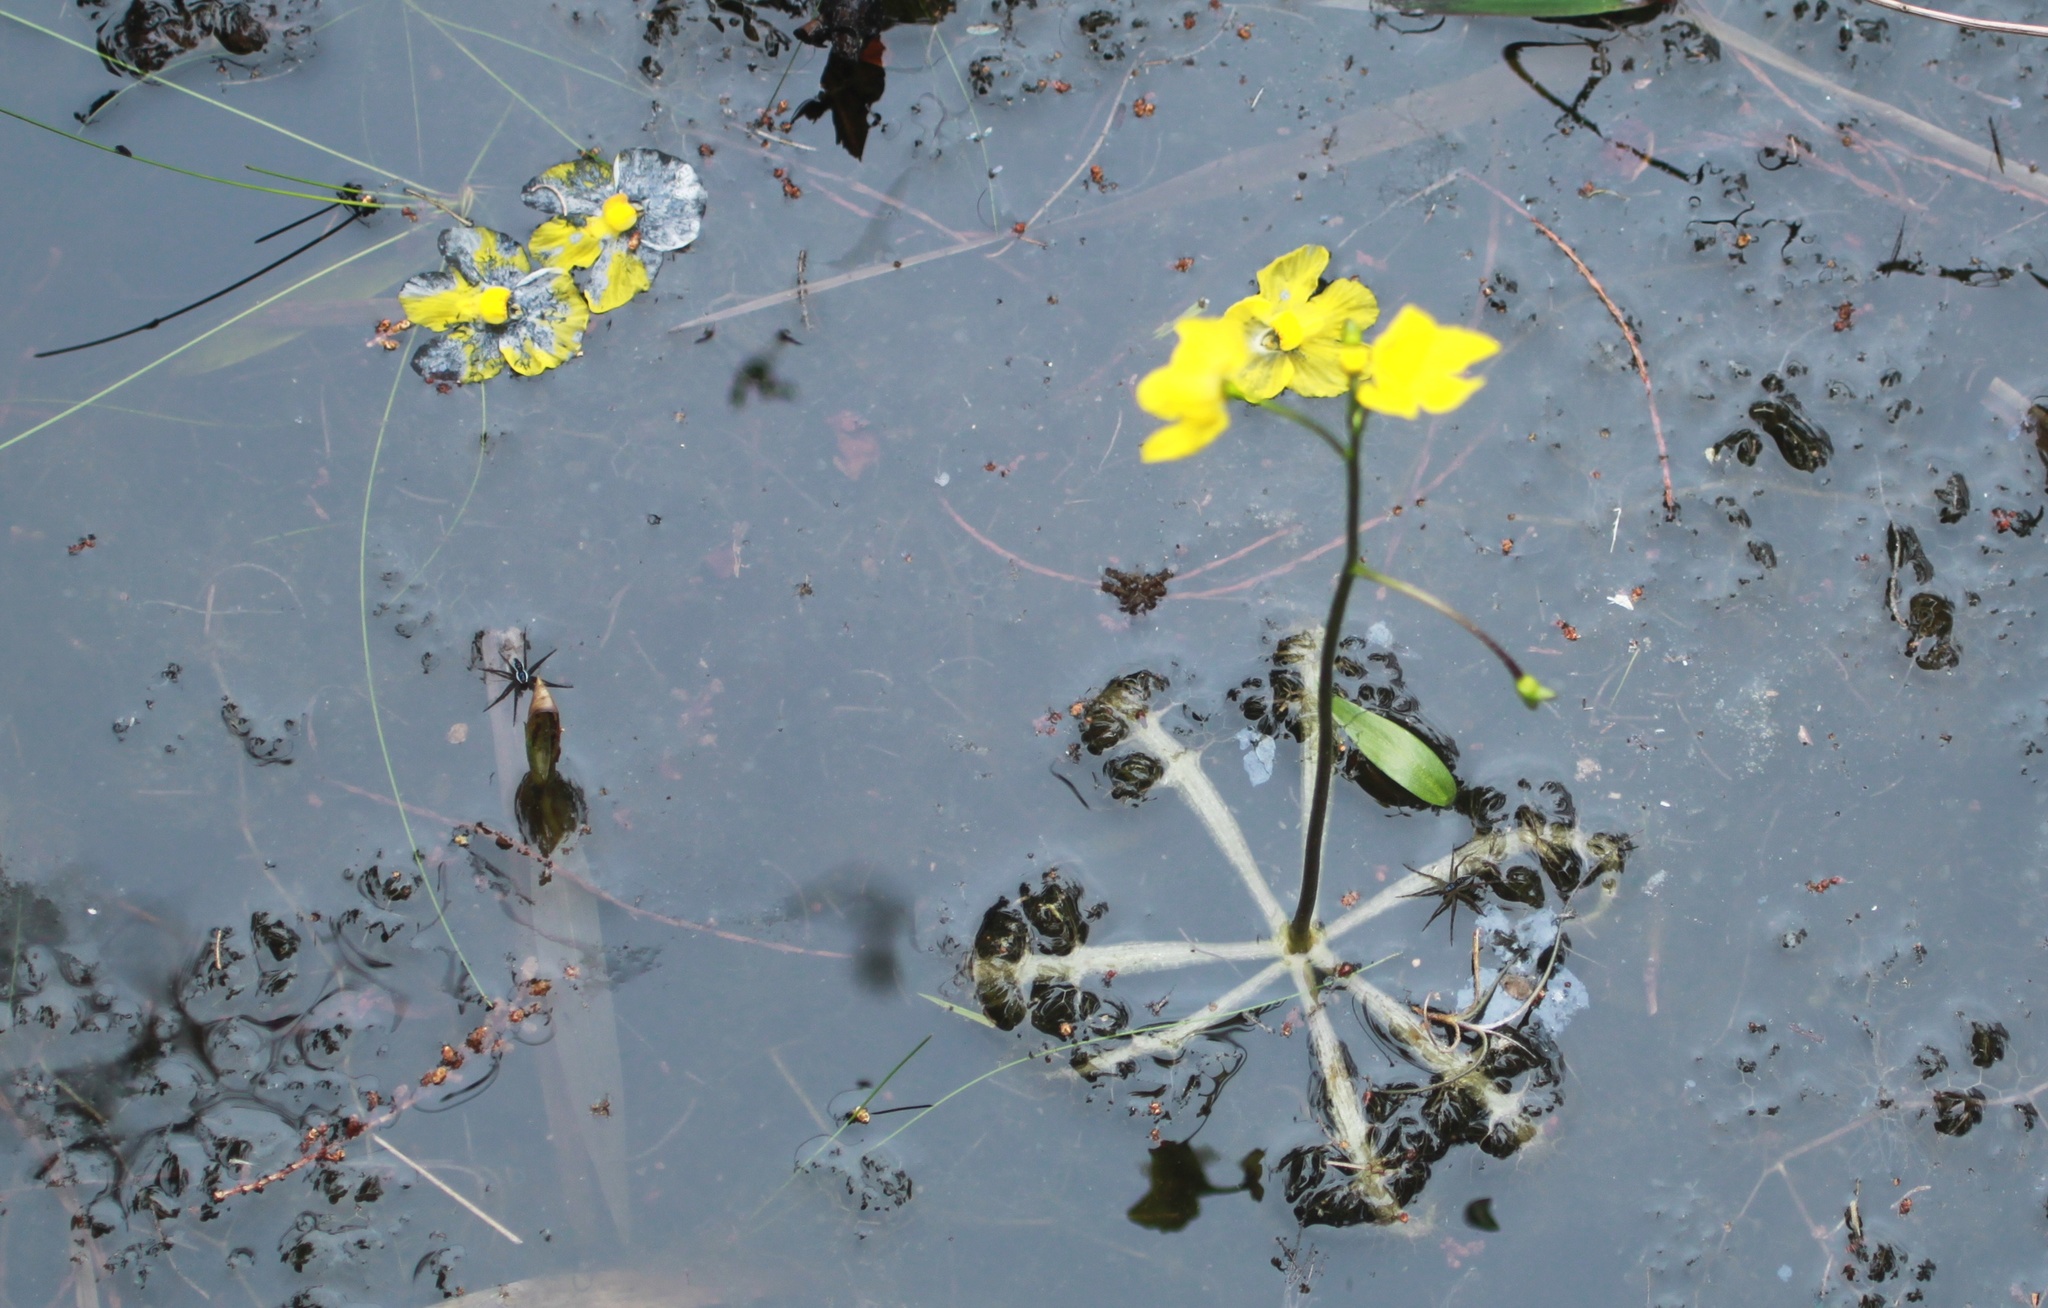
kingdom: Plantae
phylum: Tracheophyta
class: Magnoliopsida
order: Lamiales
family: Lentibulariaceae
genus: Utricularia
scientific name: Utricularia inflata
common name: Floating bladderwort
